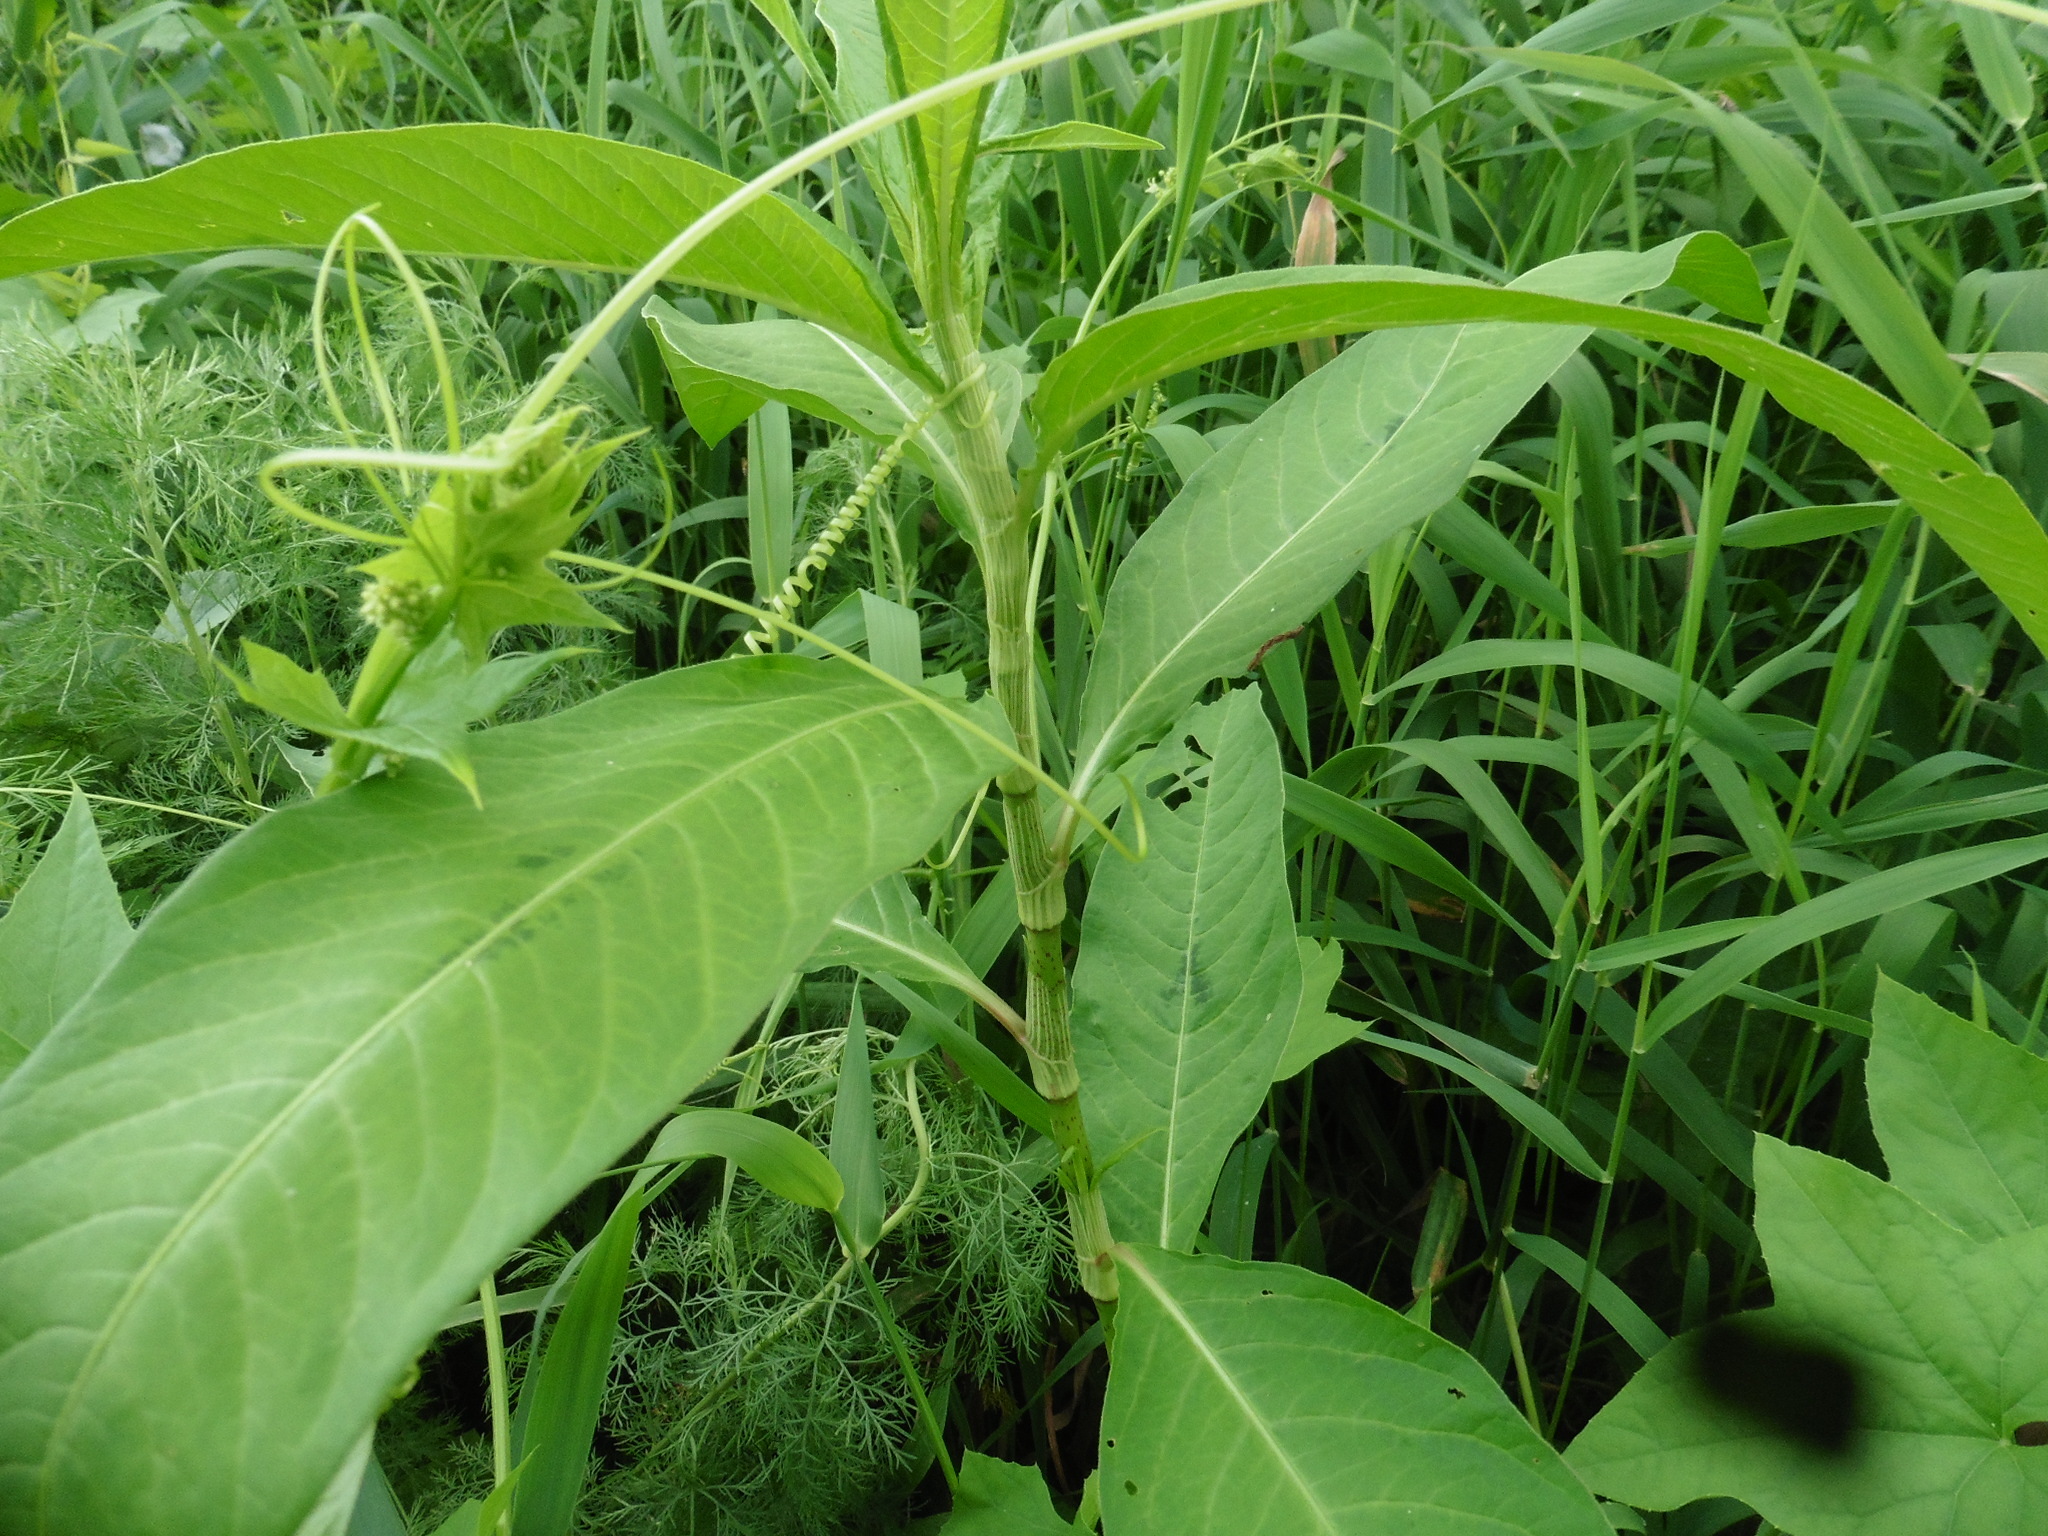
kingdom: Plantae
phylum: Tracheophyta
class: Magnoliopsida
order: Caryophyllales
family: Polygonaceae
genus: Persicaria
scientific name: Persicaria lapathifolia
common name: Curlytop knotweed
